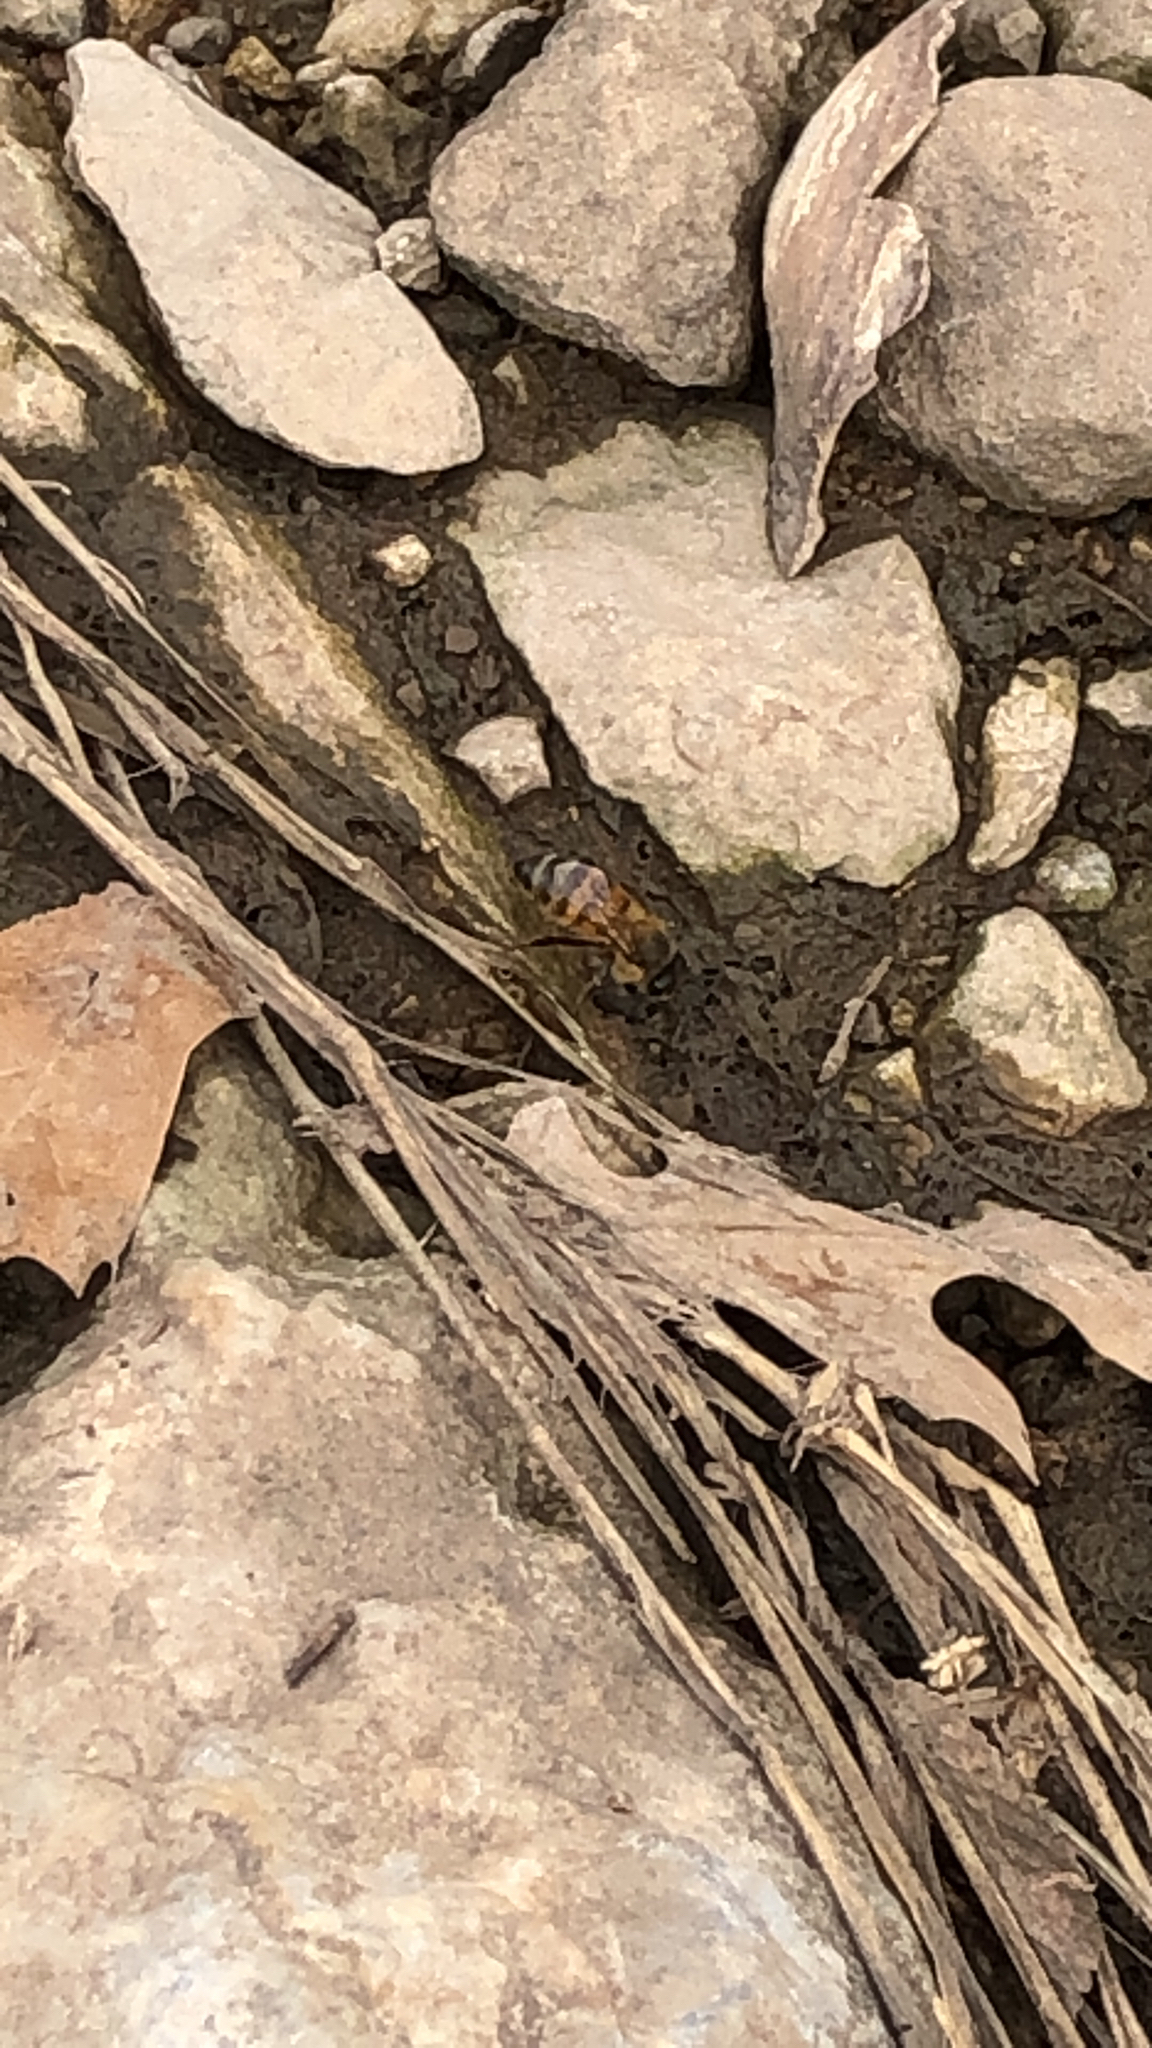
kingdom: Animalia
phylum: Arthropoda
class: Insecta
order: Hymenoptera
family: Apidae
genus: Apis
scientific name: Apis mellifera
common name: Honey bee
